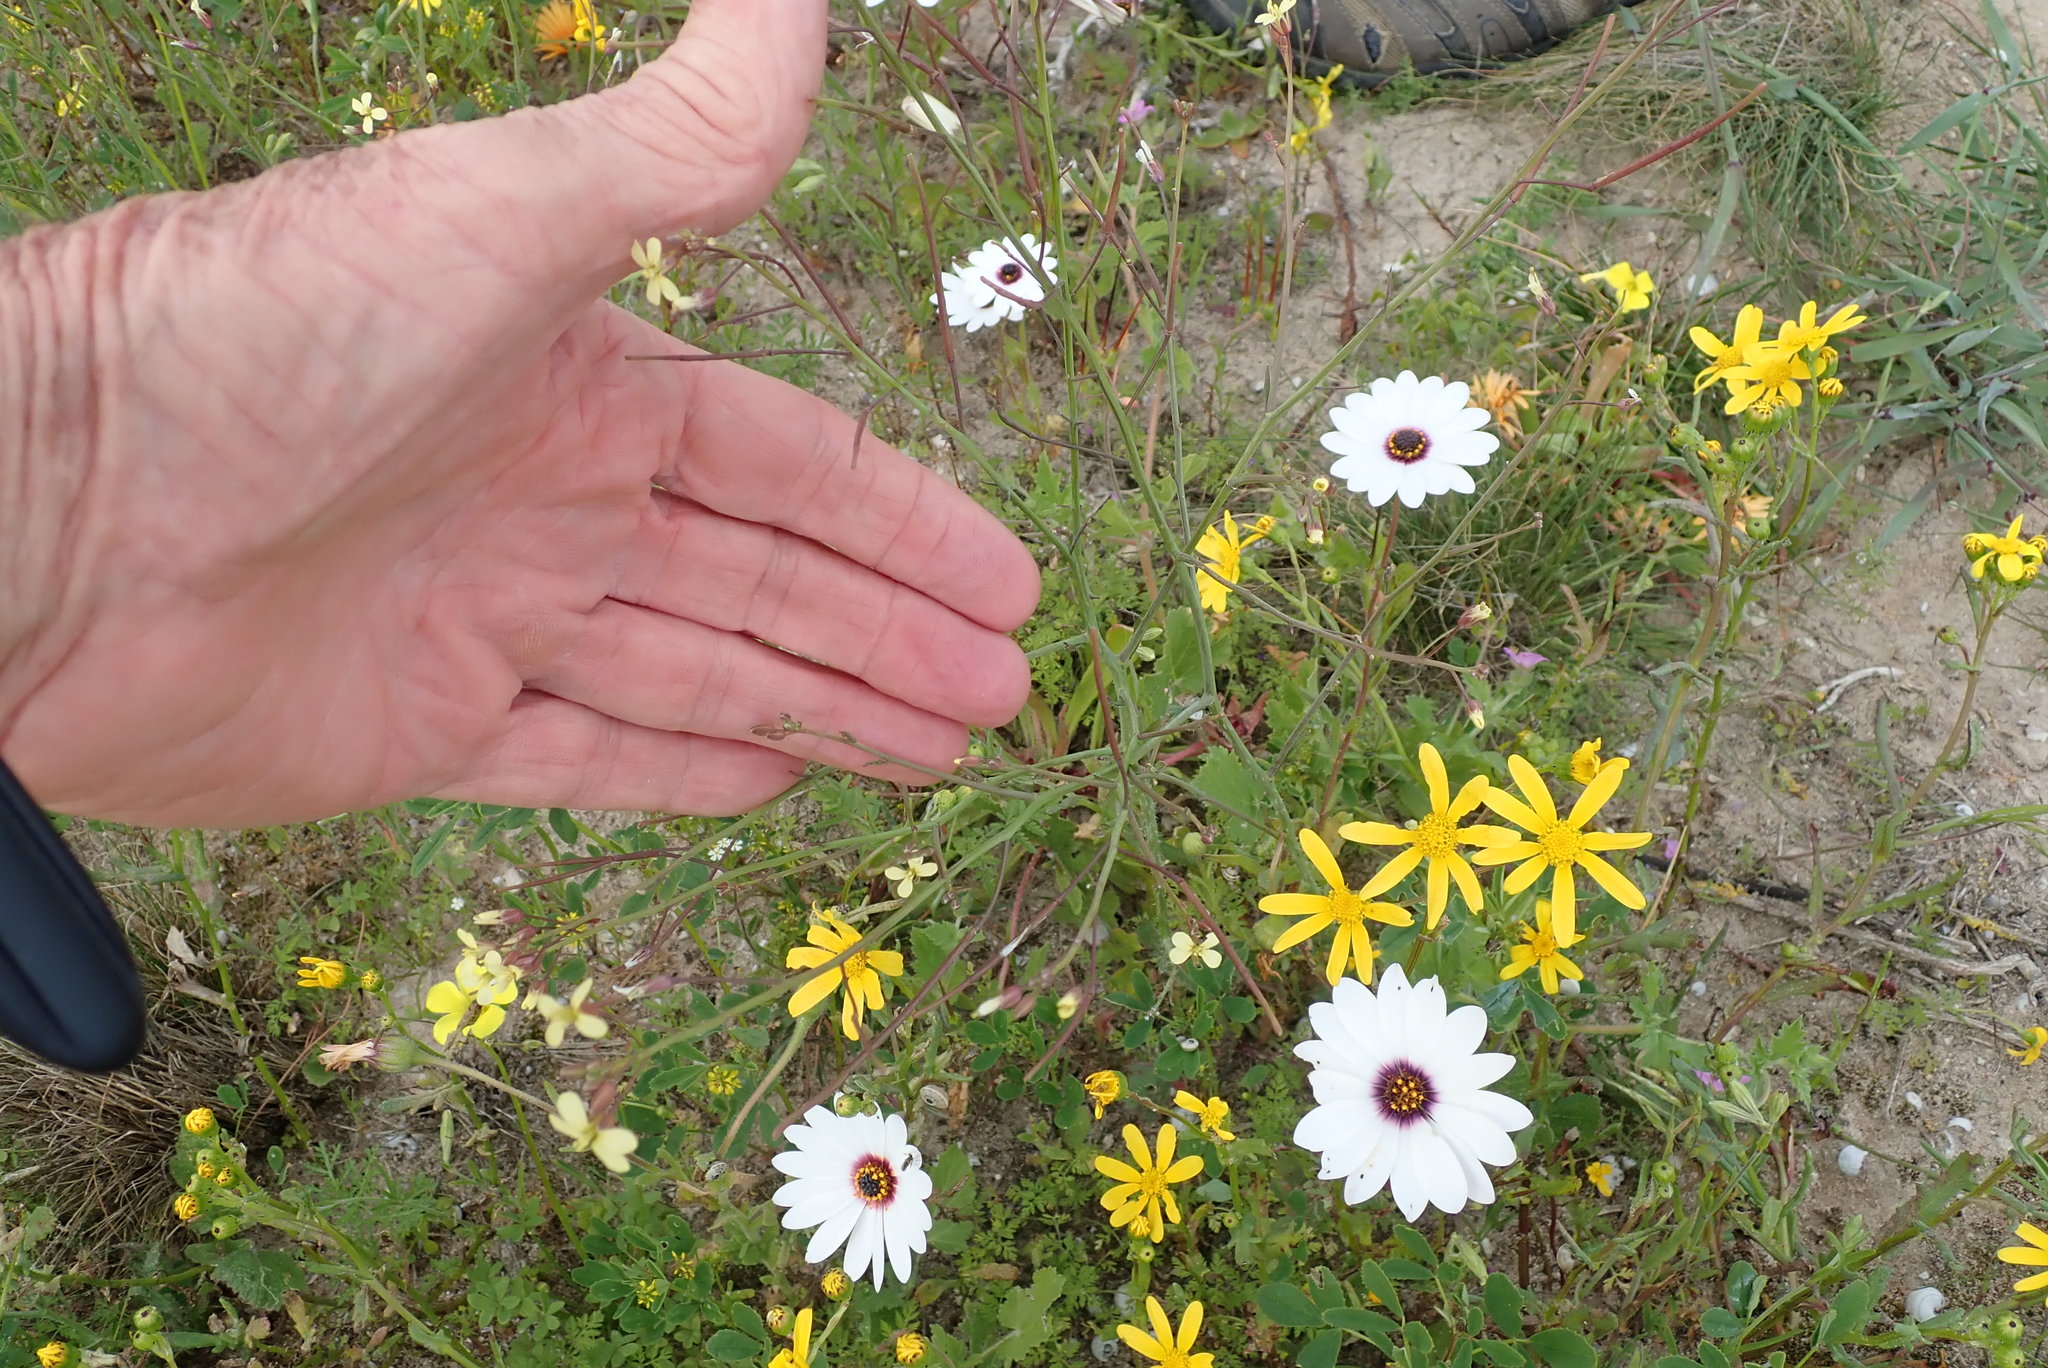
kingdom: Plantae
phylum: Tracheophyta
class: Magnoliopsida
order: Brassicales
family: Brassicaceae
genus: Brassica
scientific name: Brassica tournefortii
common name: Pale cabbage
